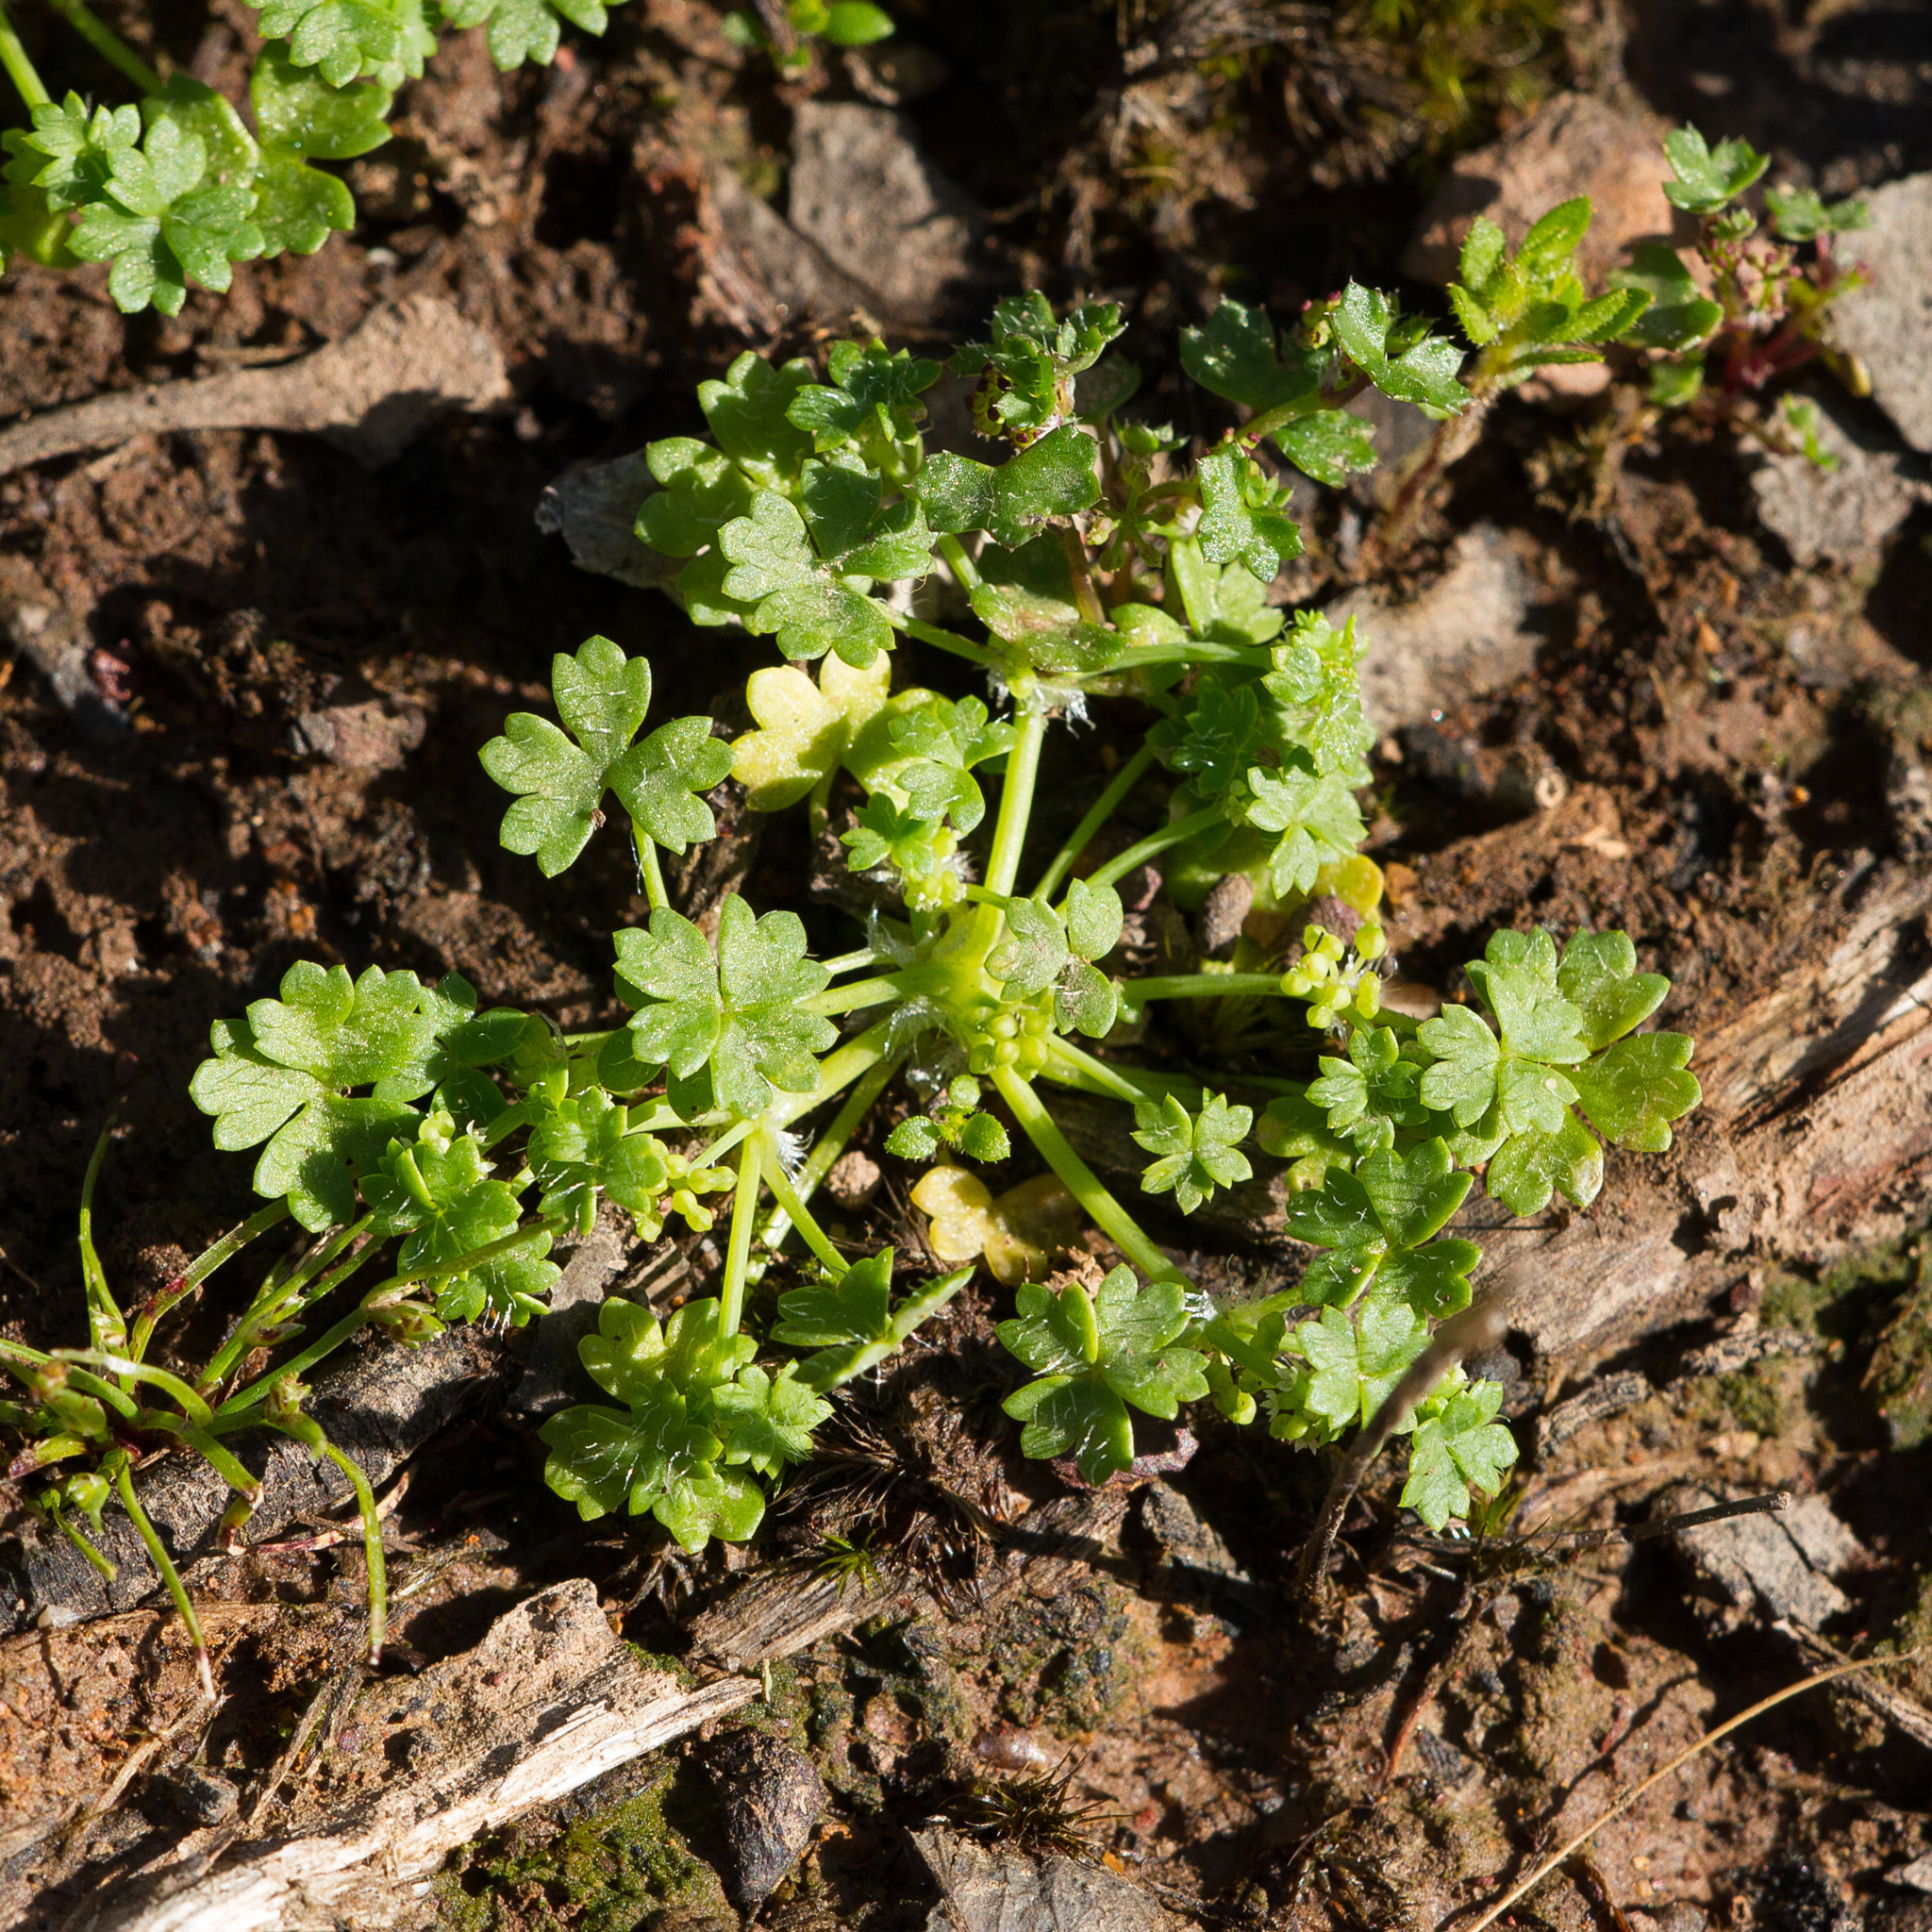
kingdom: Plantae
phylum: Tracheophyta
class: Magnoliopsida
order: Apiales
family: Araliaceae
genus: Hydrocotyle
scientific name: Hydrocotyle foveolata
